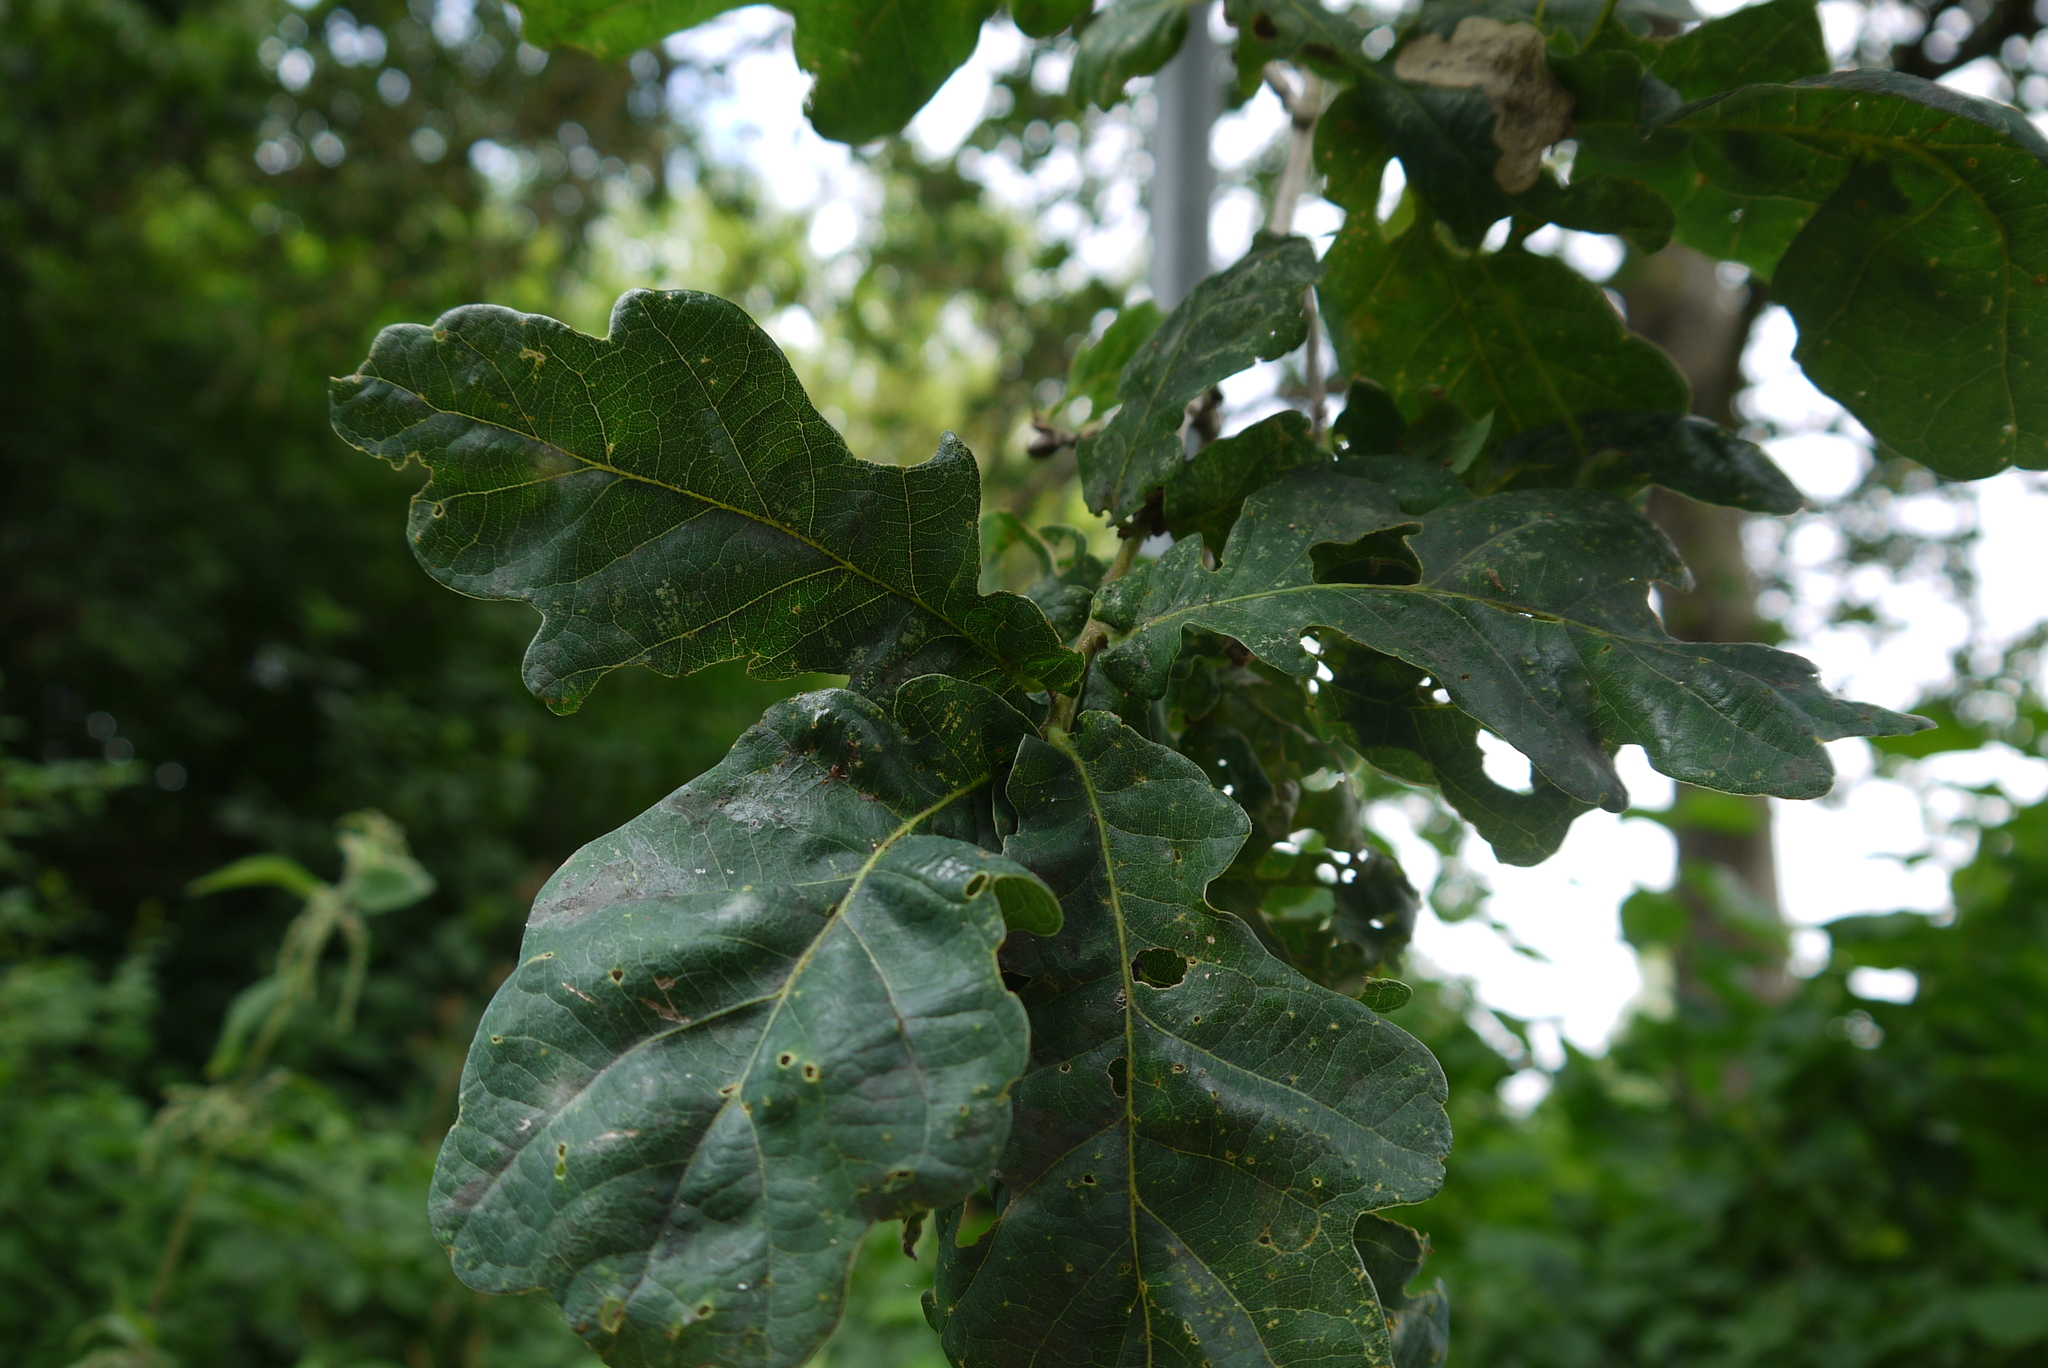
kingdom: Plantae
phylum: Tracheophyta
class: Magnoliopsida
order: Fagales
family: Fagaceae
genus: Quercus
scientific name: Quercus robur
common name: Pedunculate oak
